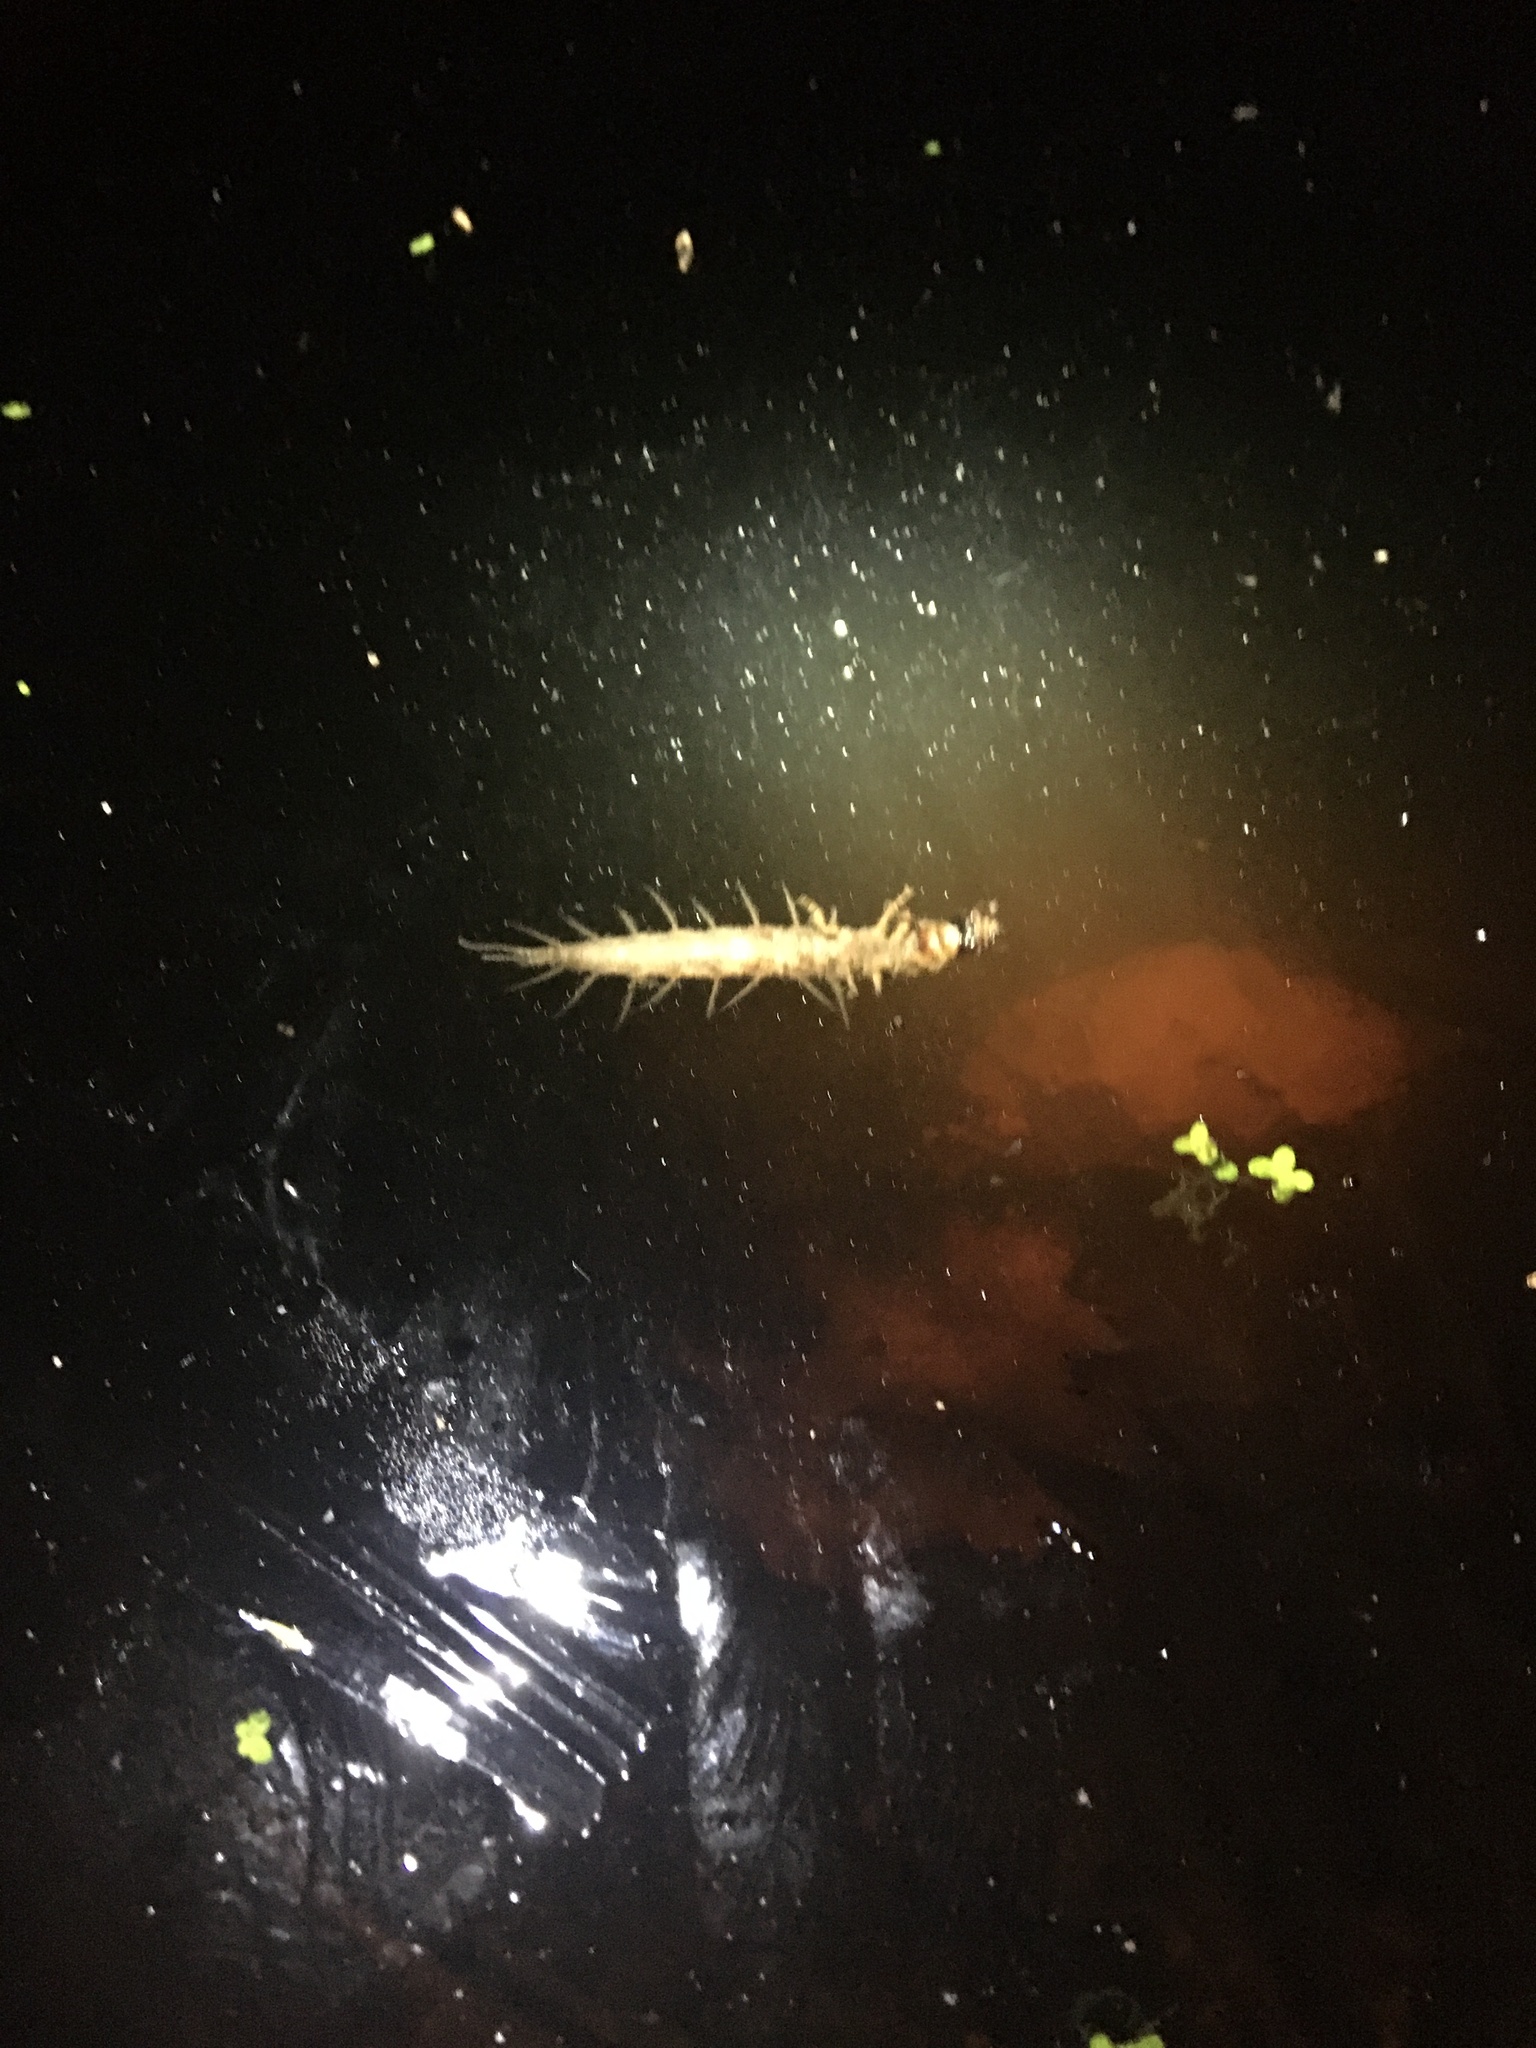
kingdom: Animalia
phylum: Arthropoda
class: Insecta
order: Megaloptera
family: Corydalidae
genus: Chauliodes
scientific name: Chauliodes
